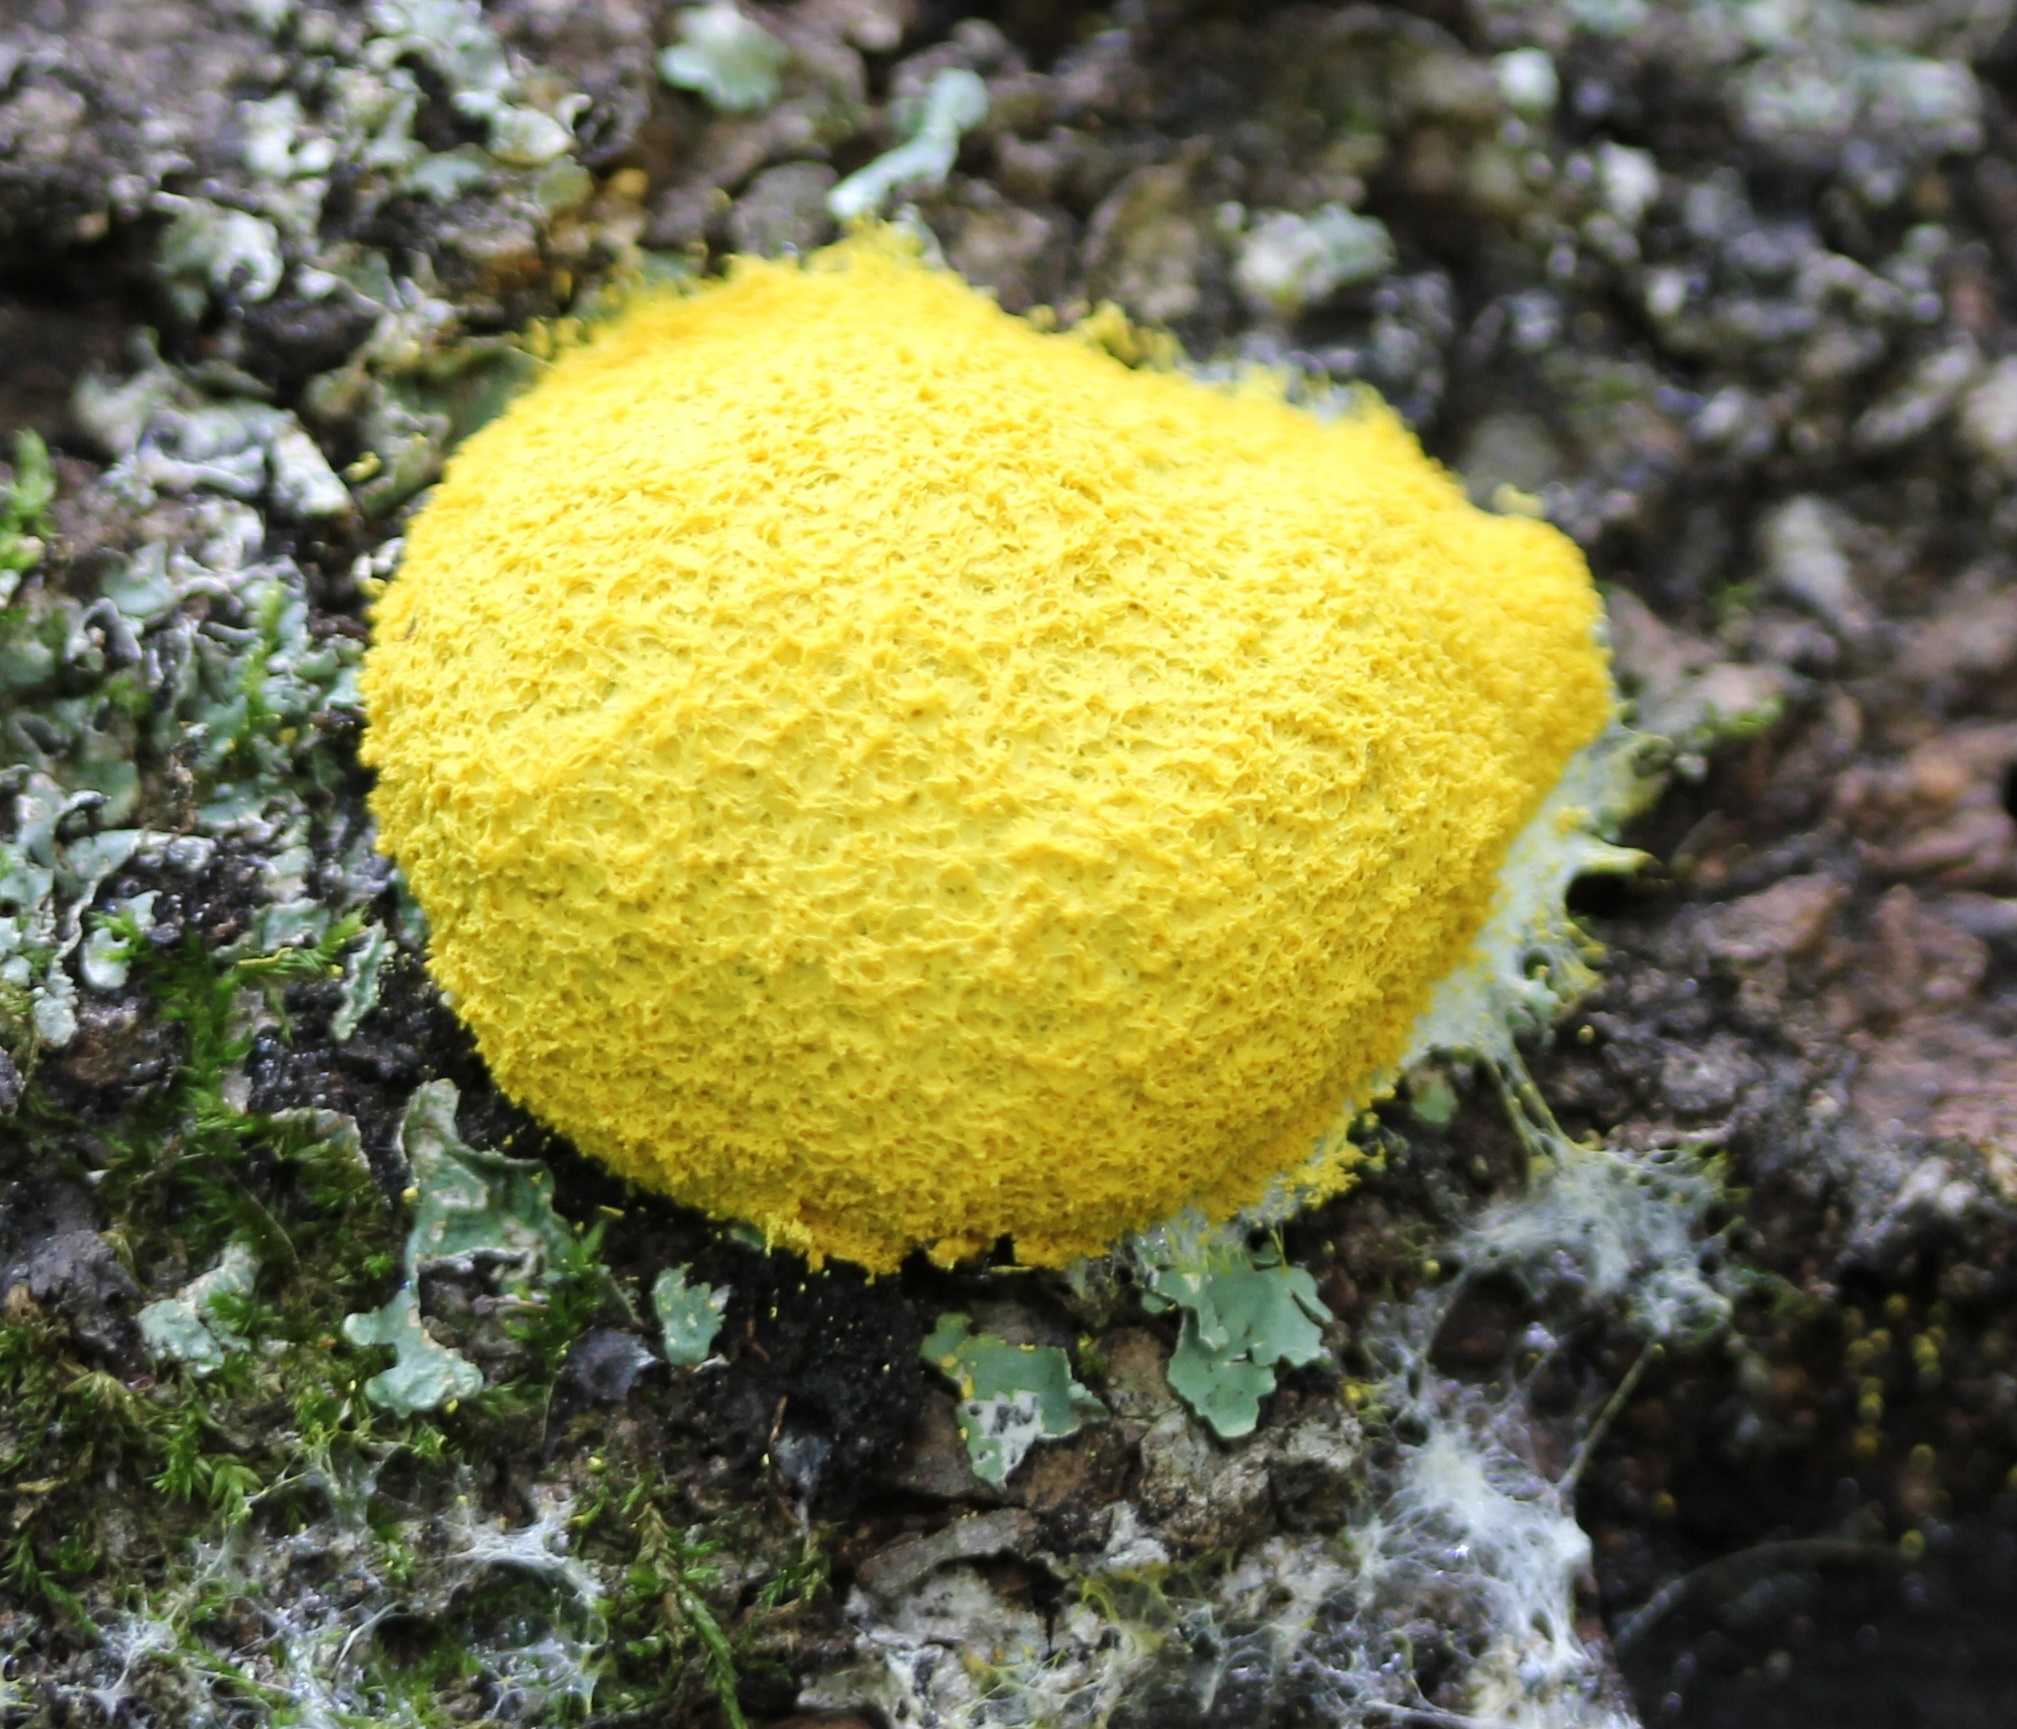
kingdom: Protozoa
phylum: Mycetozoa
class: Myxomycetes
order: Physarales
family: Physaraceae
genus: Fuligo
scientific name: Fuligo septica
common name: Dog vomit slime mold
